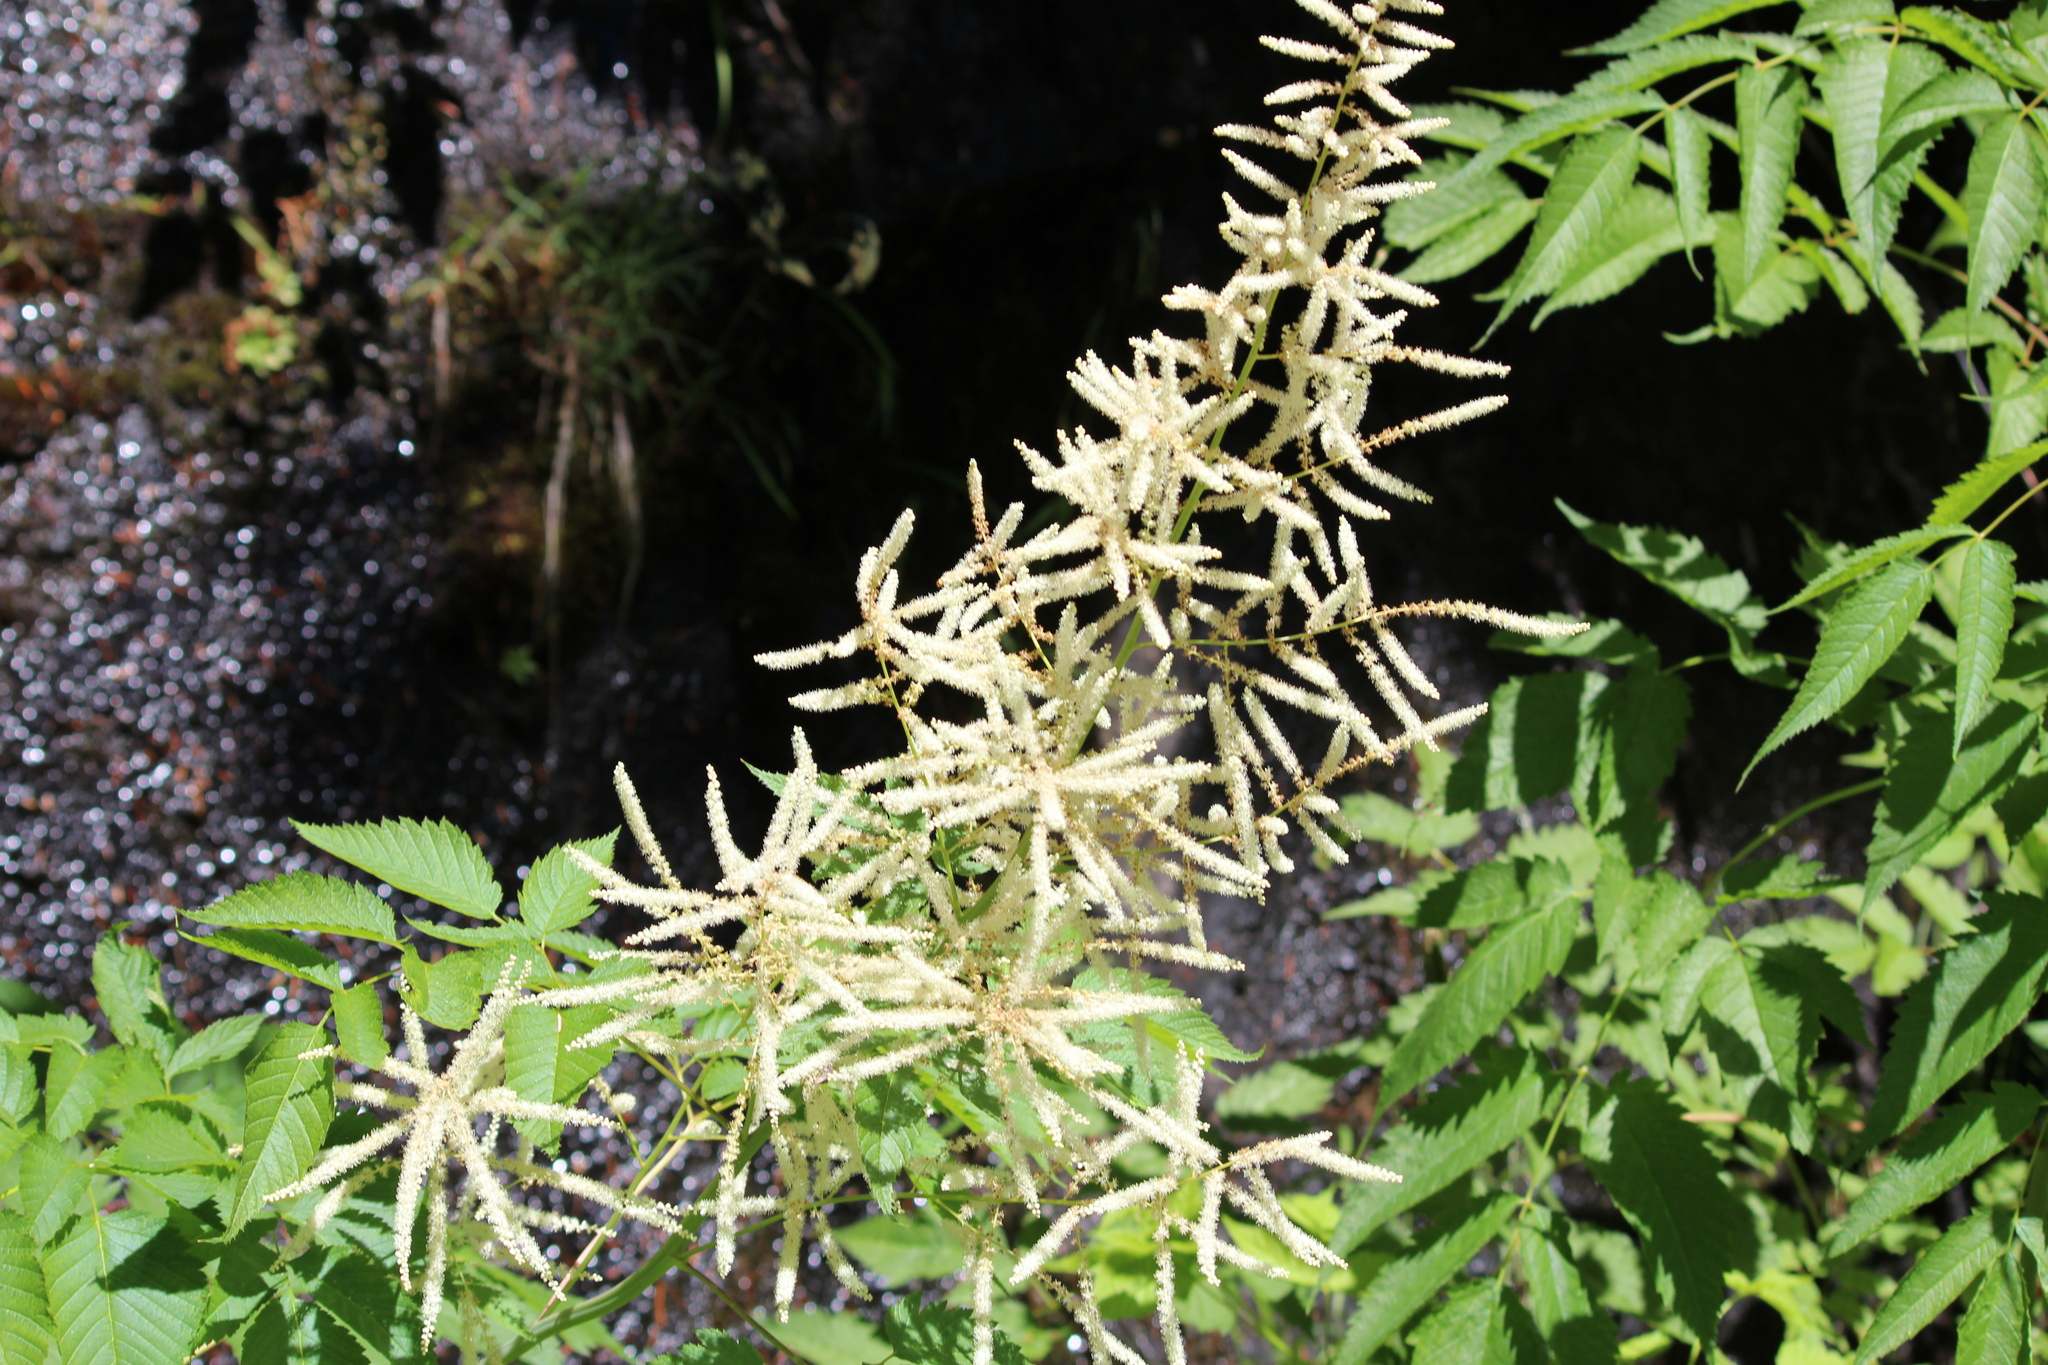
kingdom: Plantae
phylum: Tracheophyta
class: Magnoliopsida
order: Rosales
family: Rosaceae
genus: Aruncus
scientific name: Aruncus dioicus
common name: Buck's-beard
